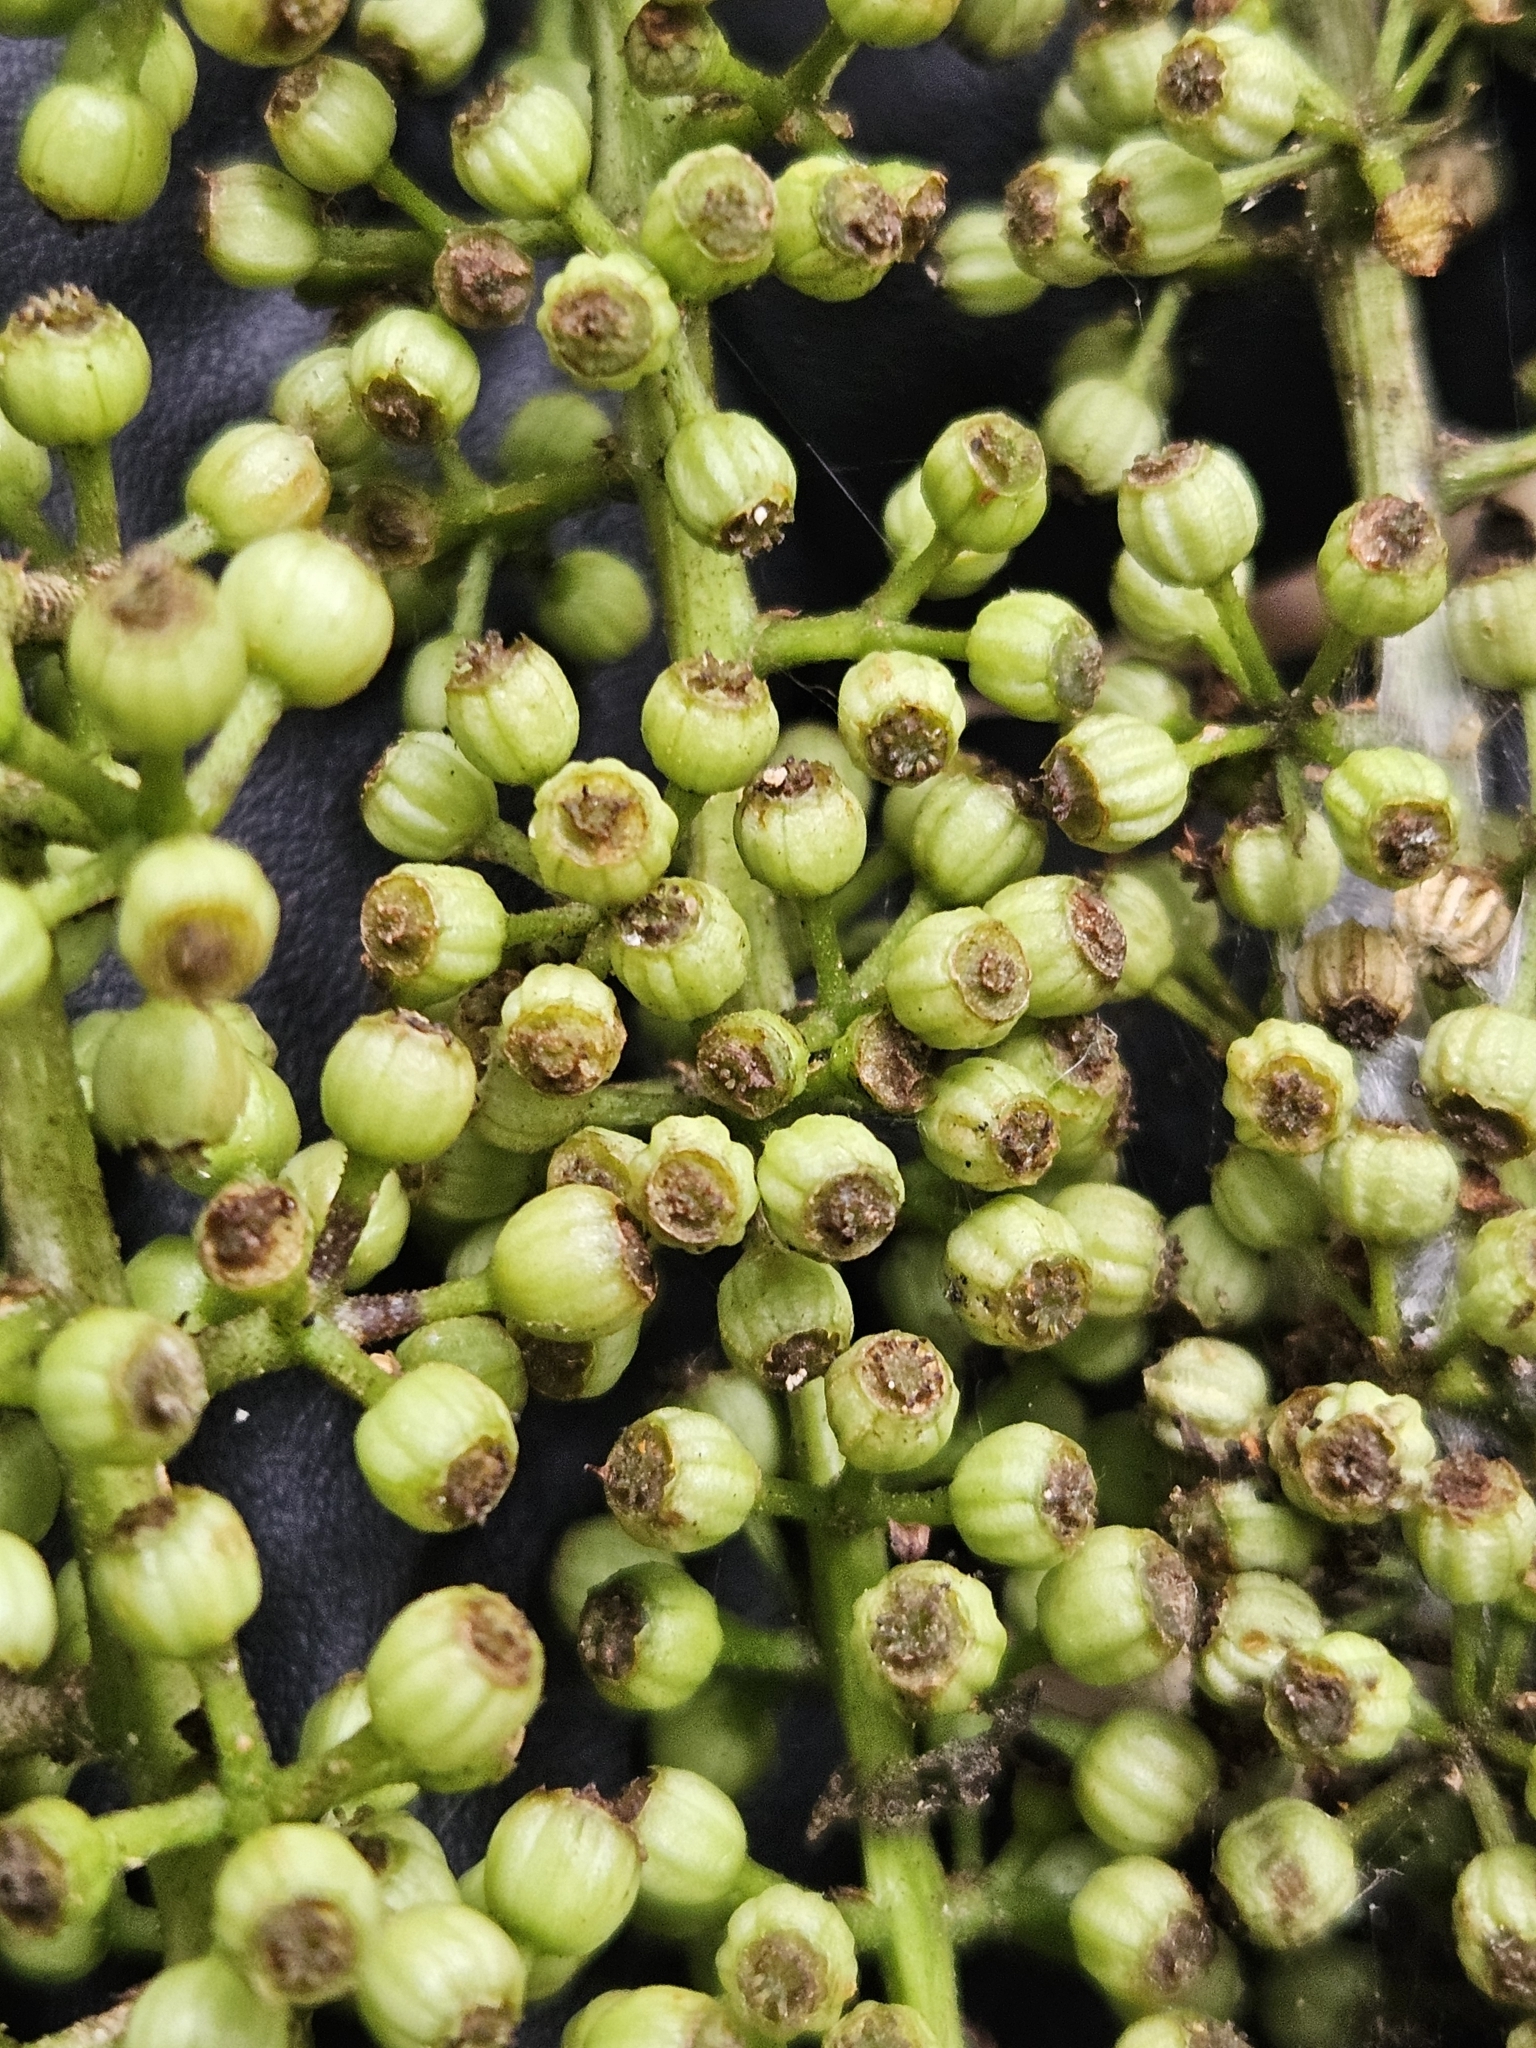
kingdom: Plantae
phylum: Tracheophyta
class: Magnoliopsida
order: Apiales
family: Araliaceae
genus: Schefflera
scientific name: Schefflera digitata
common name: Pate
